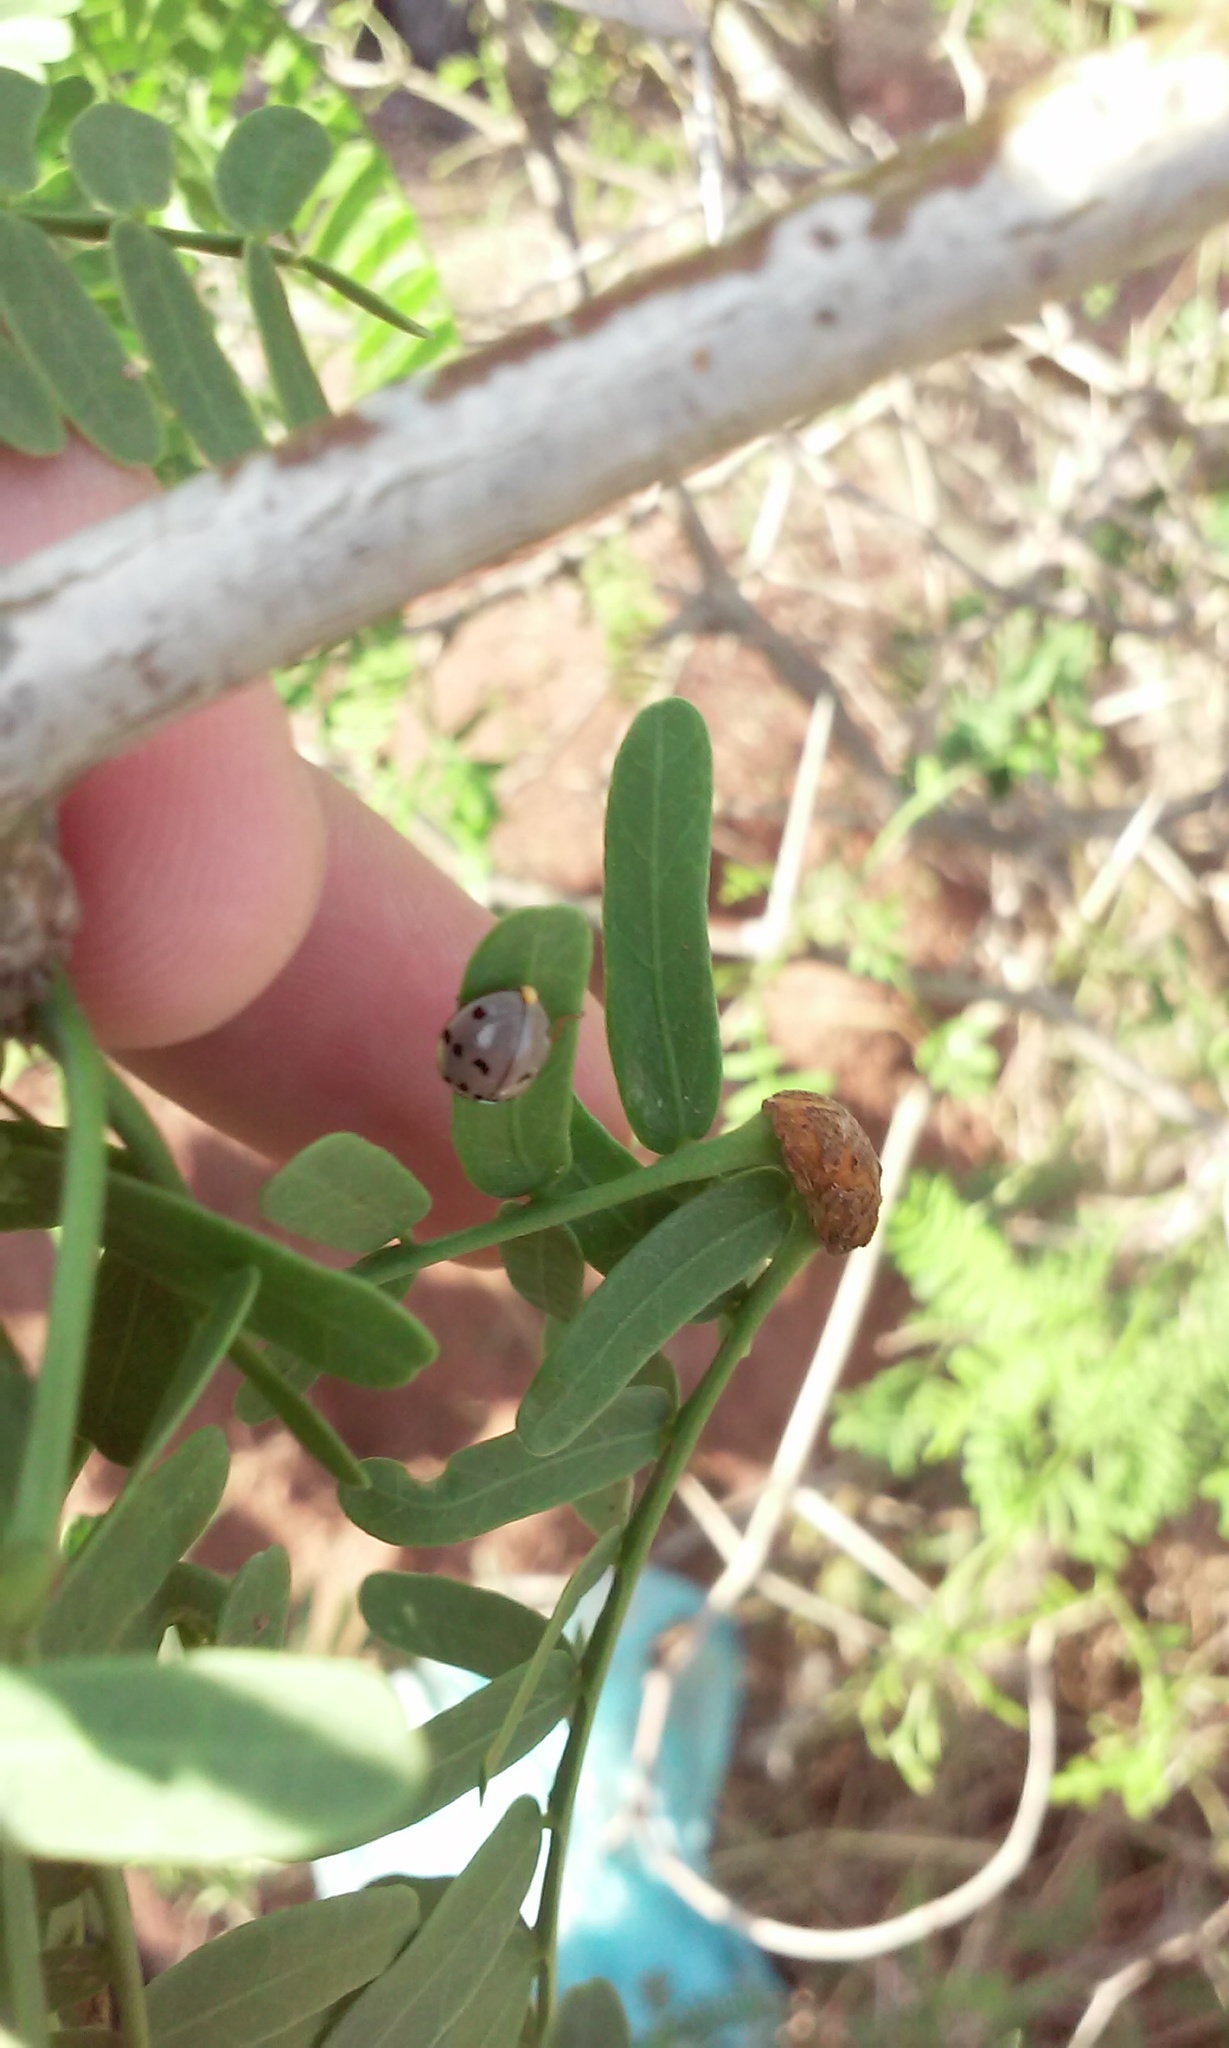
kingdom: Animalia
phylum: Arthropoda
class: Insecta
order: Coleoptera
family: Coccinellidae
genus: Olla
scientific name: Olla v-nigrum
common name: Ashy gray lady beetle
